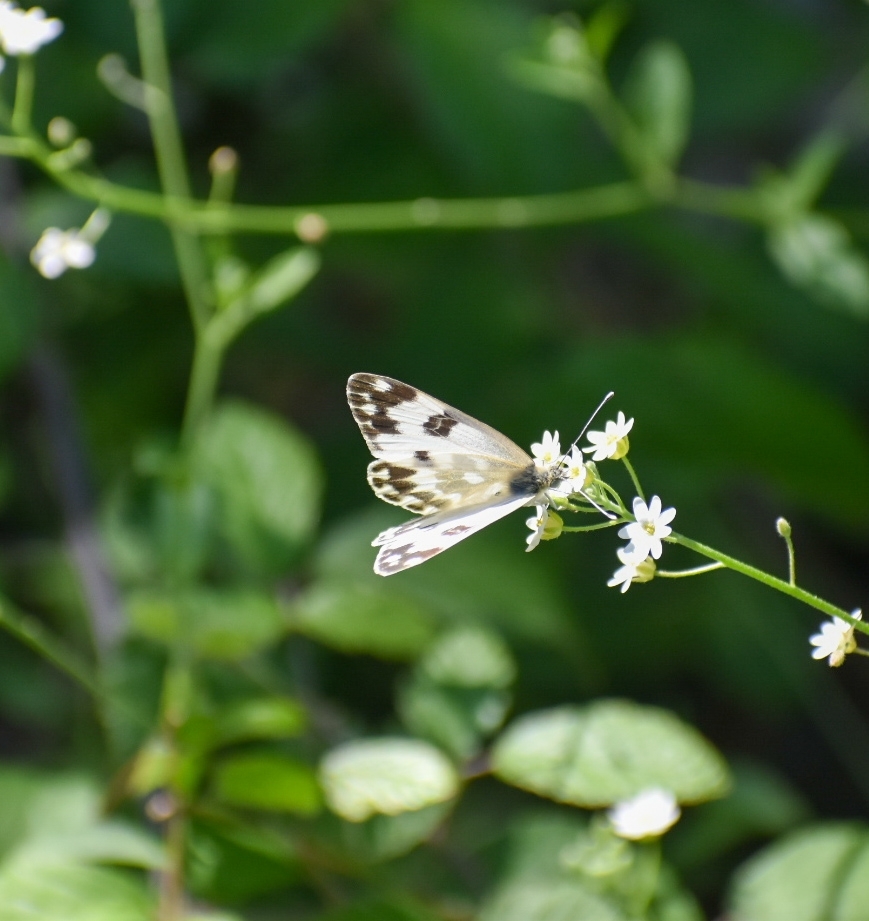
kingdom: Animalia
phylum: Arthropoda
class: Insecta
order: Lepidoptera
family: Pieridae
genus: Pontia
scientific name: Pontia edusa
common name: Eastern bath white
